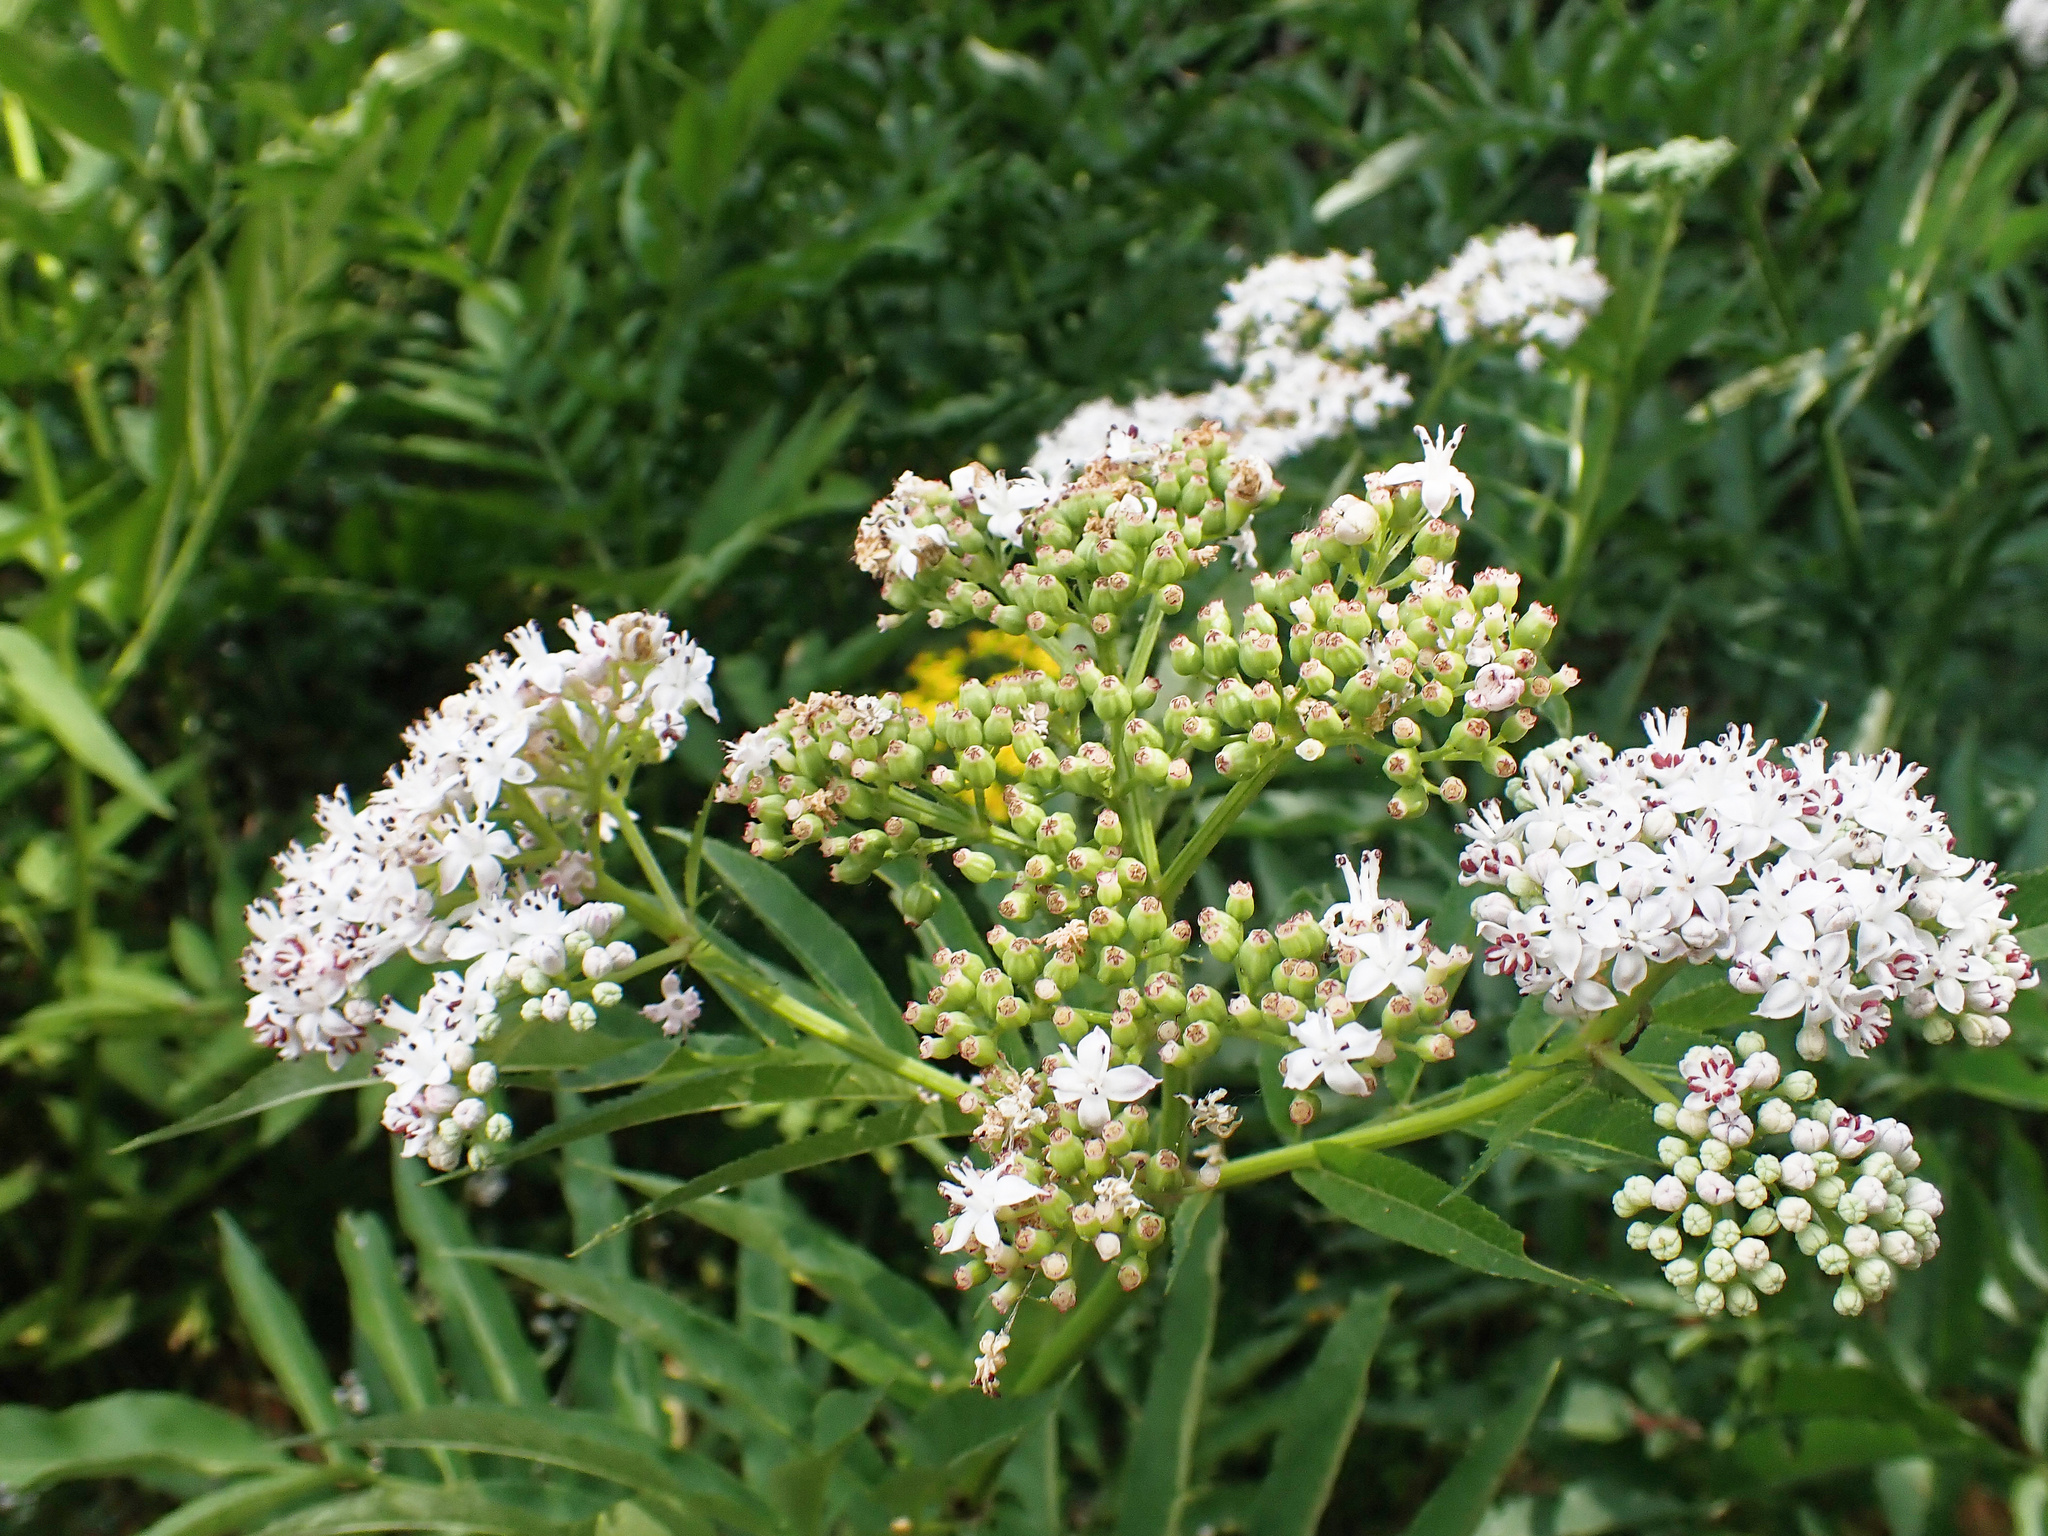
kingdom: Plantae
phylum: Tracheophyta
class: Magnoliopsida
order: Dipsacales
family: Viburnaceae
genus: Sambucus
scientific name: Sambucus ebulus
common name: Dwarf elder
